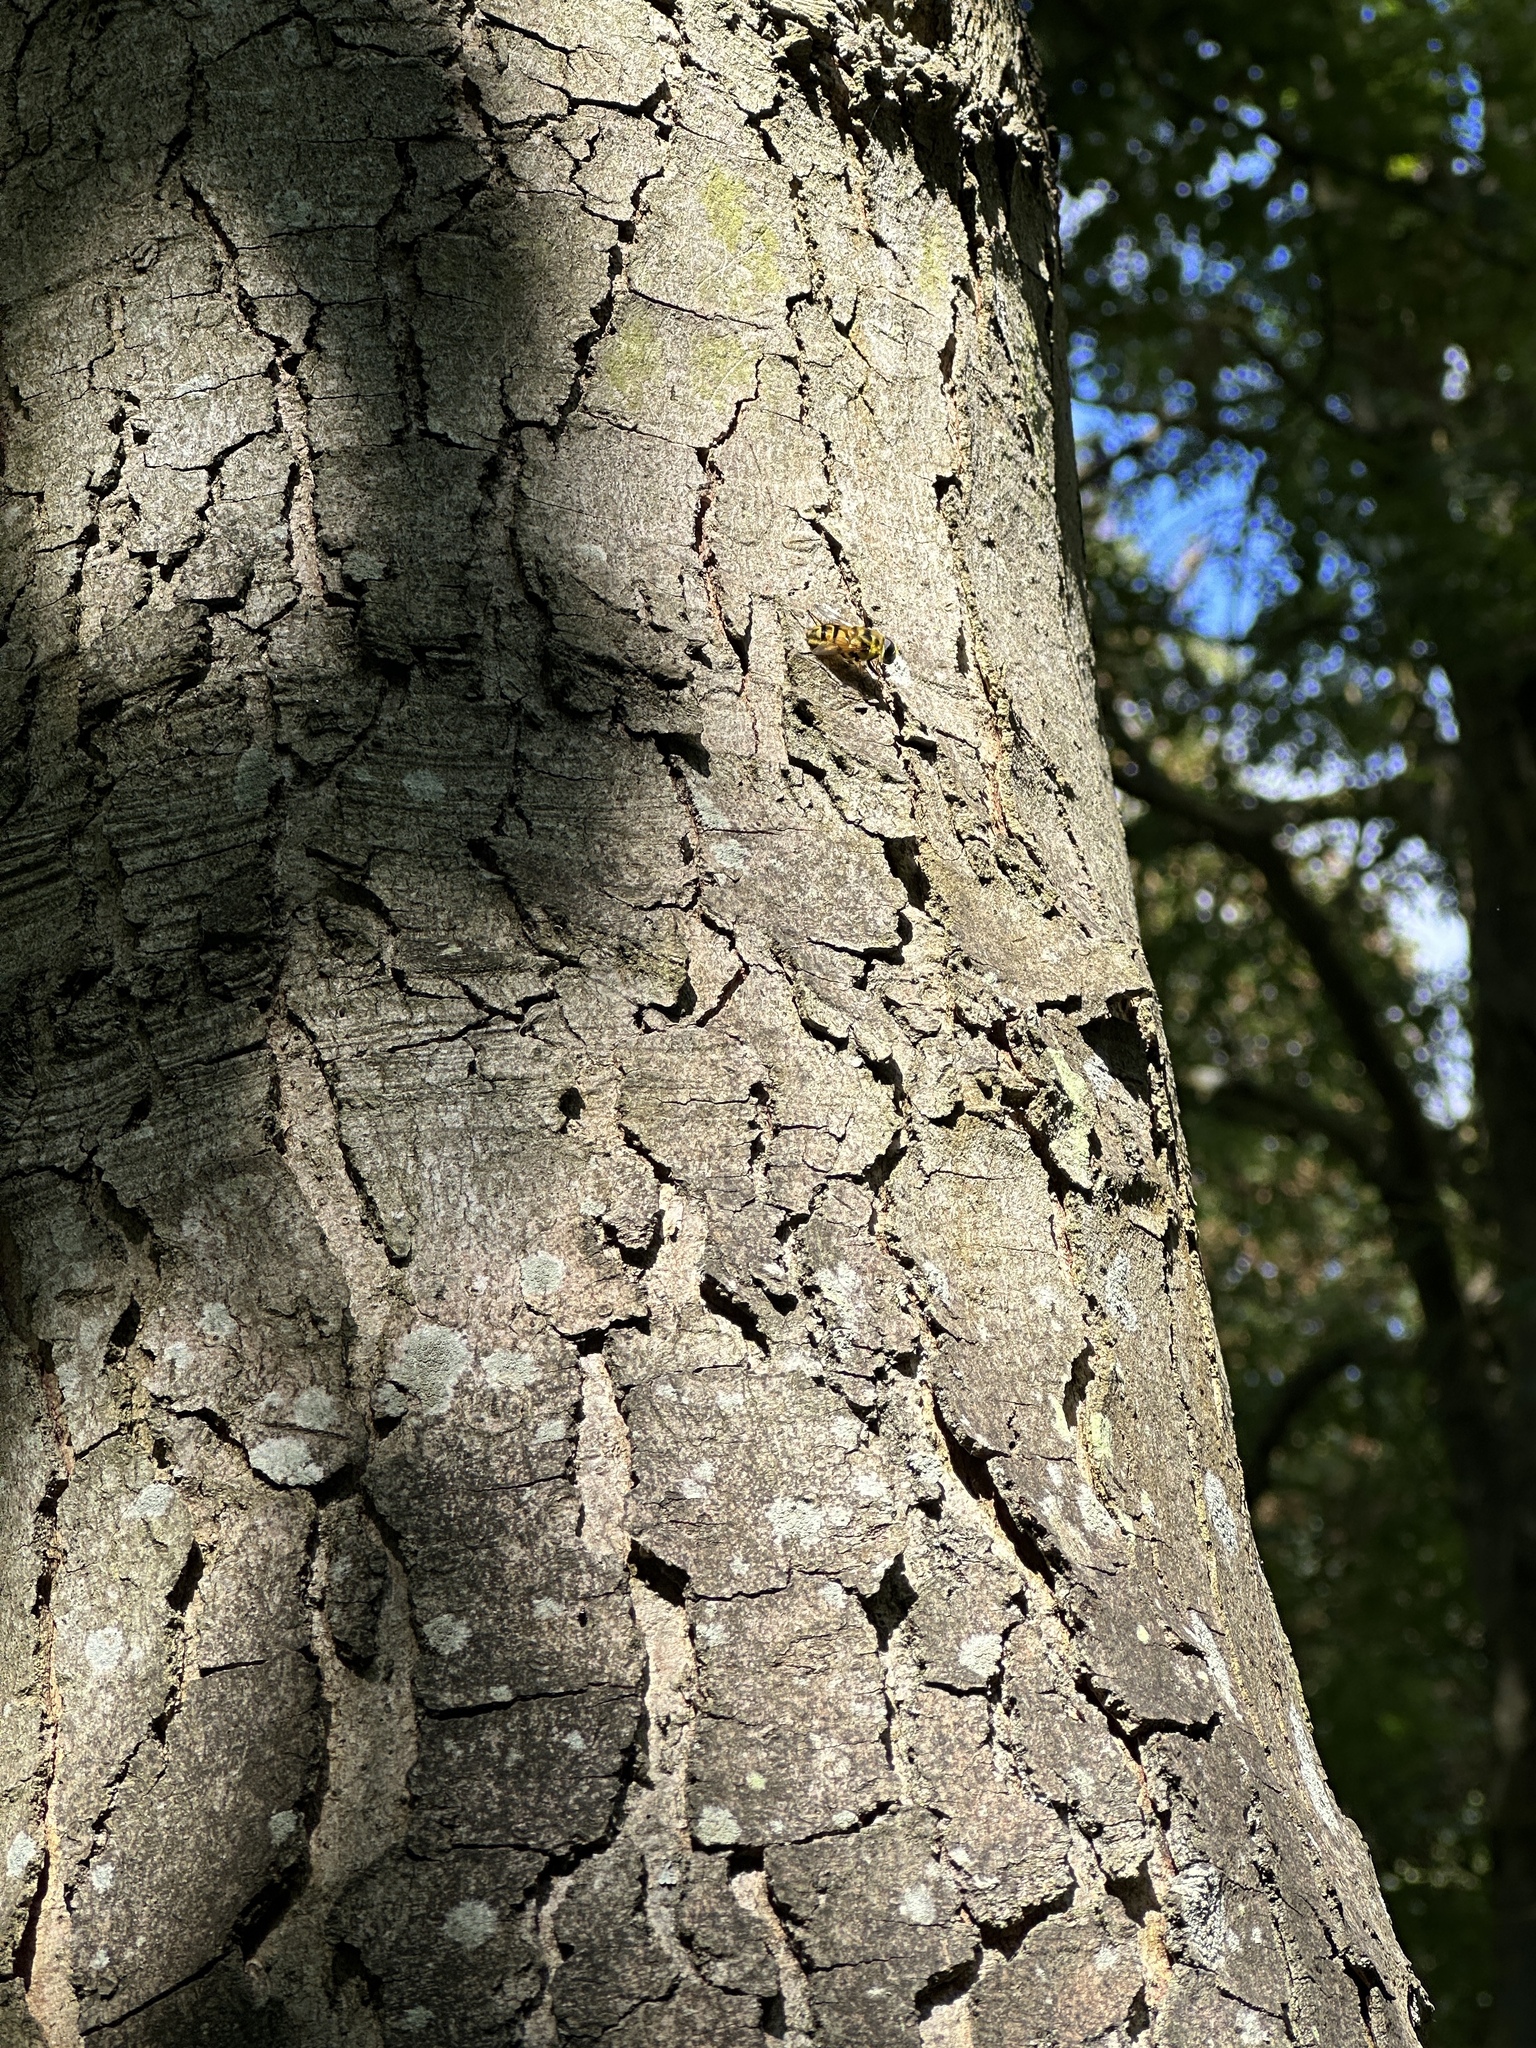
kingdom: Animalia
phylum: Arthropoda
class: Insecta
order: Diptera
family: Syrphidae
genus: Myathropa
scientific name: Myathropa florea
